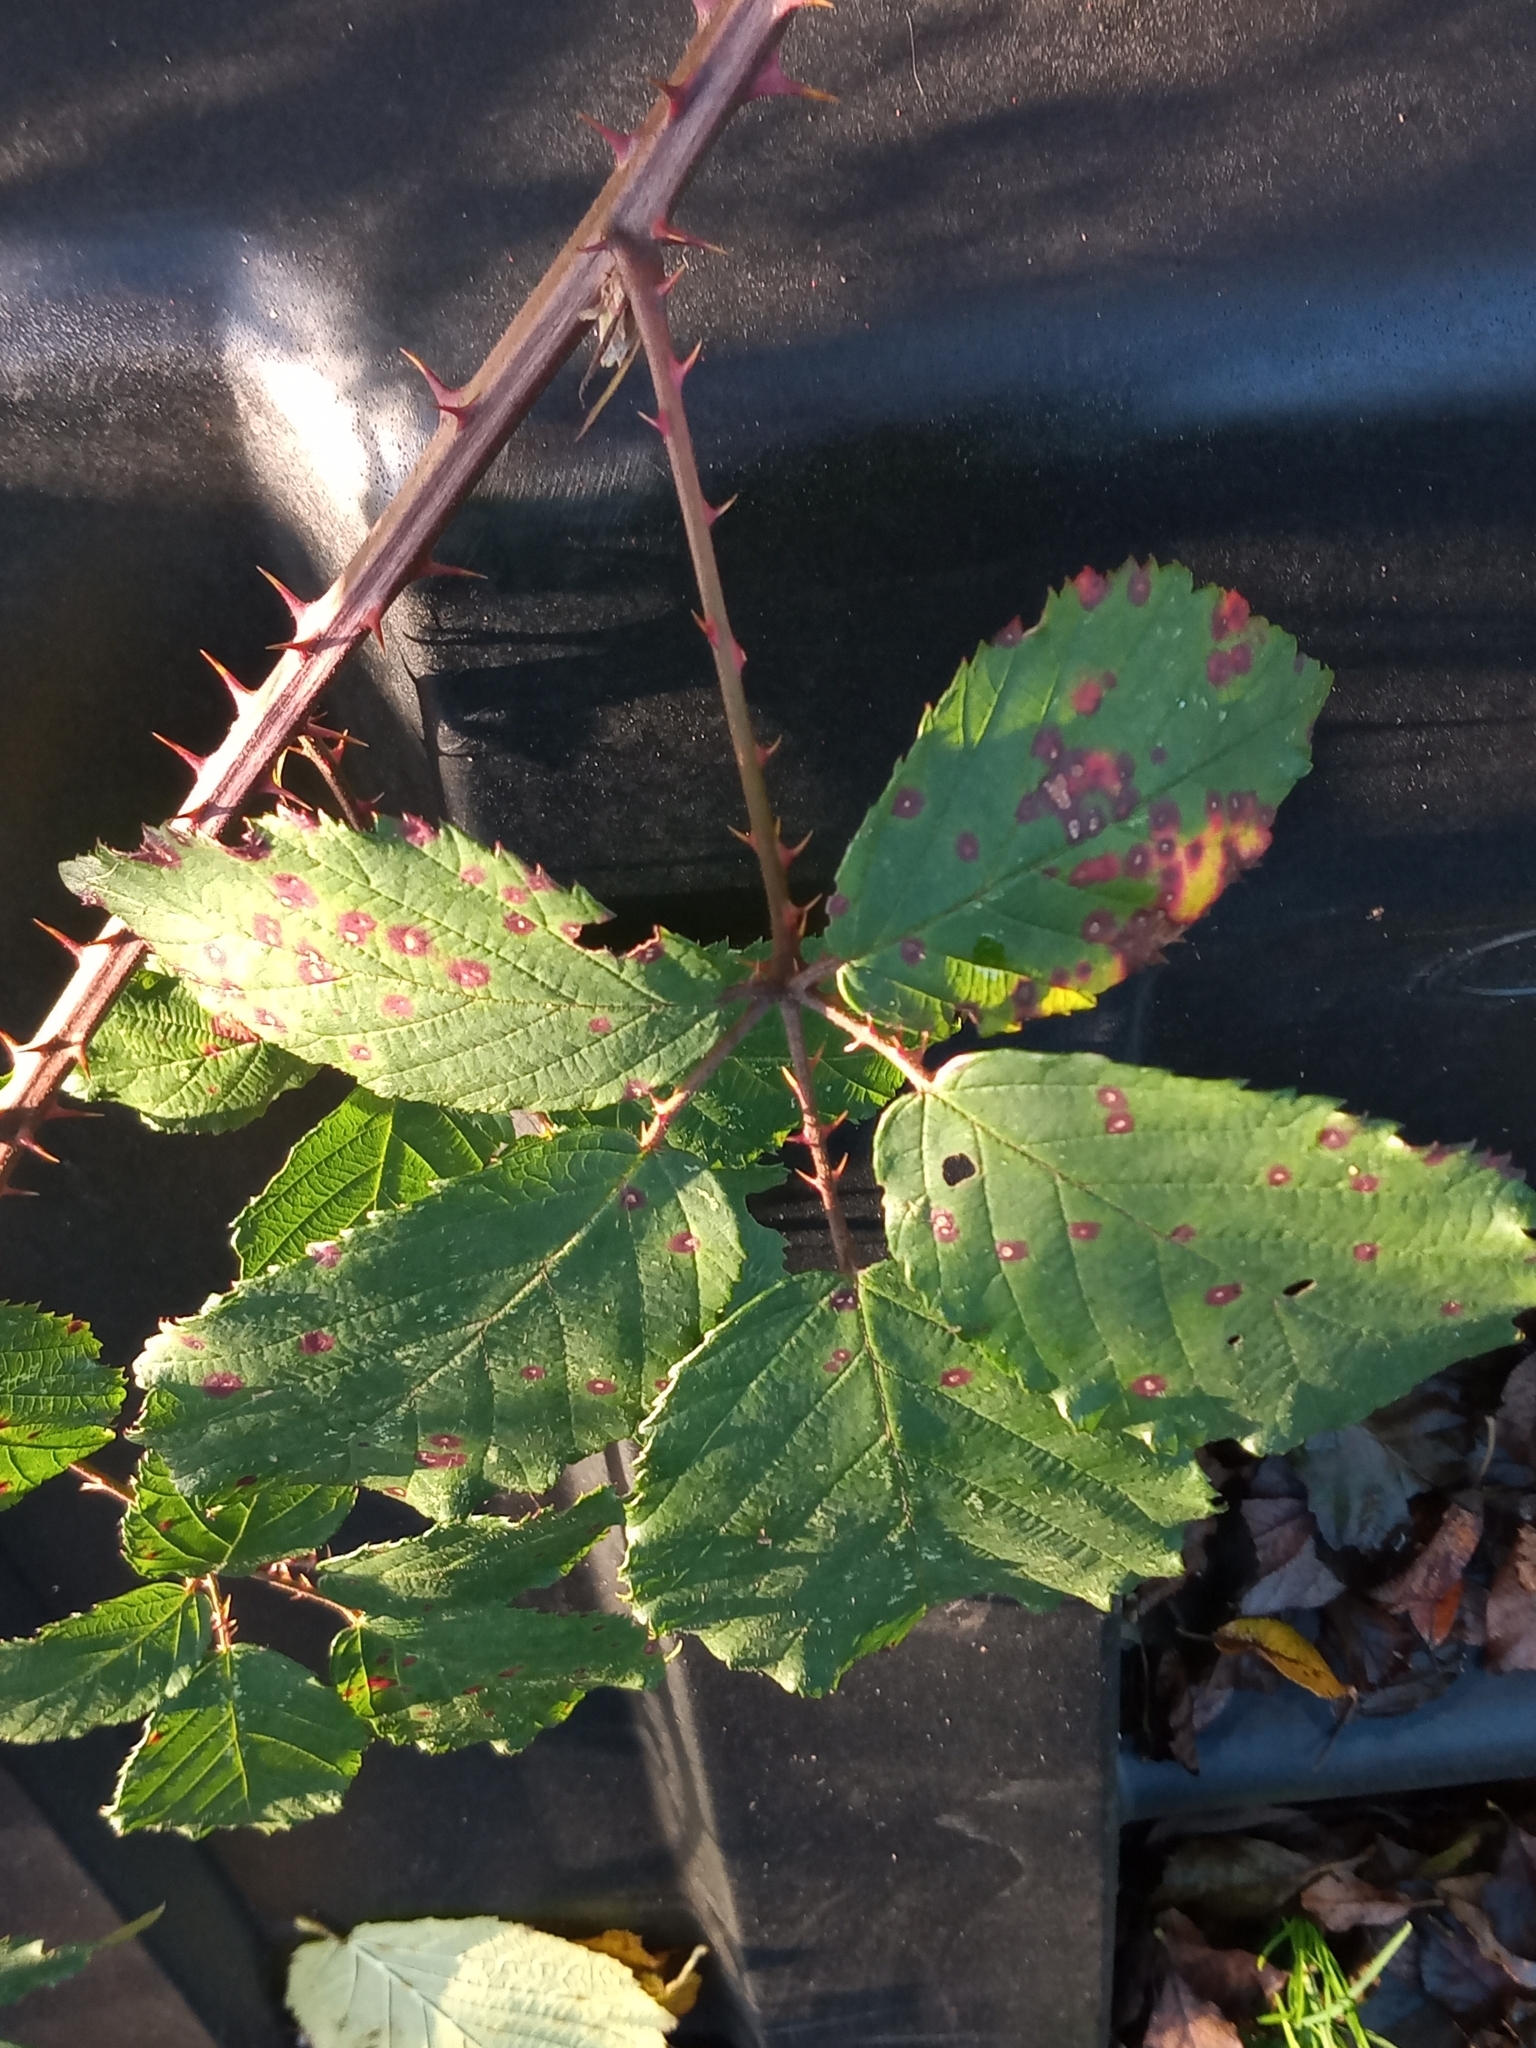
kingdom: Fungi
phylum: Basidiomycota
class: Pucciniomycetes
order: Pucciniales
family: Phragmidiaceae
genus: Phragmidium
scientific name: Phragmidium violaceum
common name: Violet bramble rust
